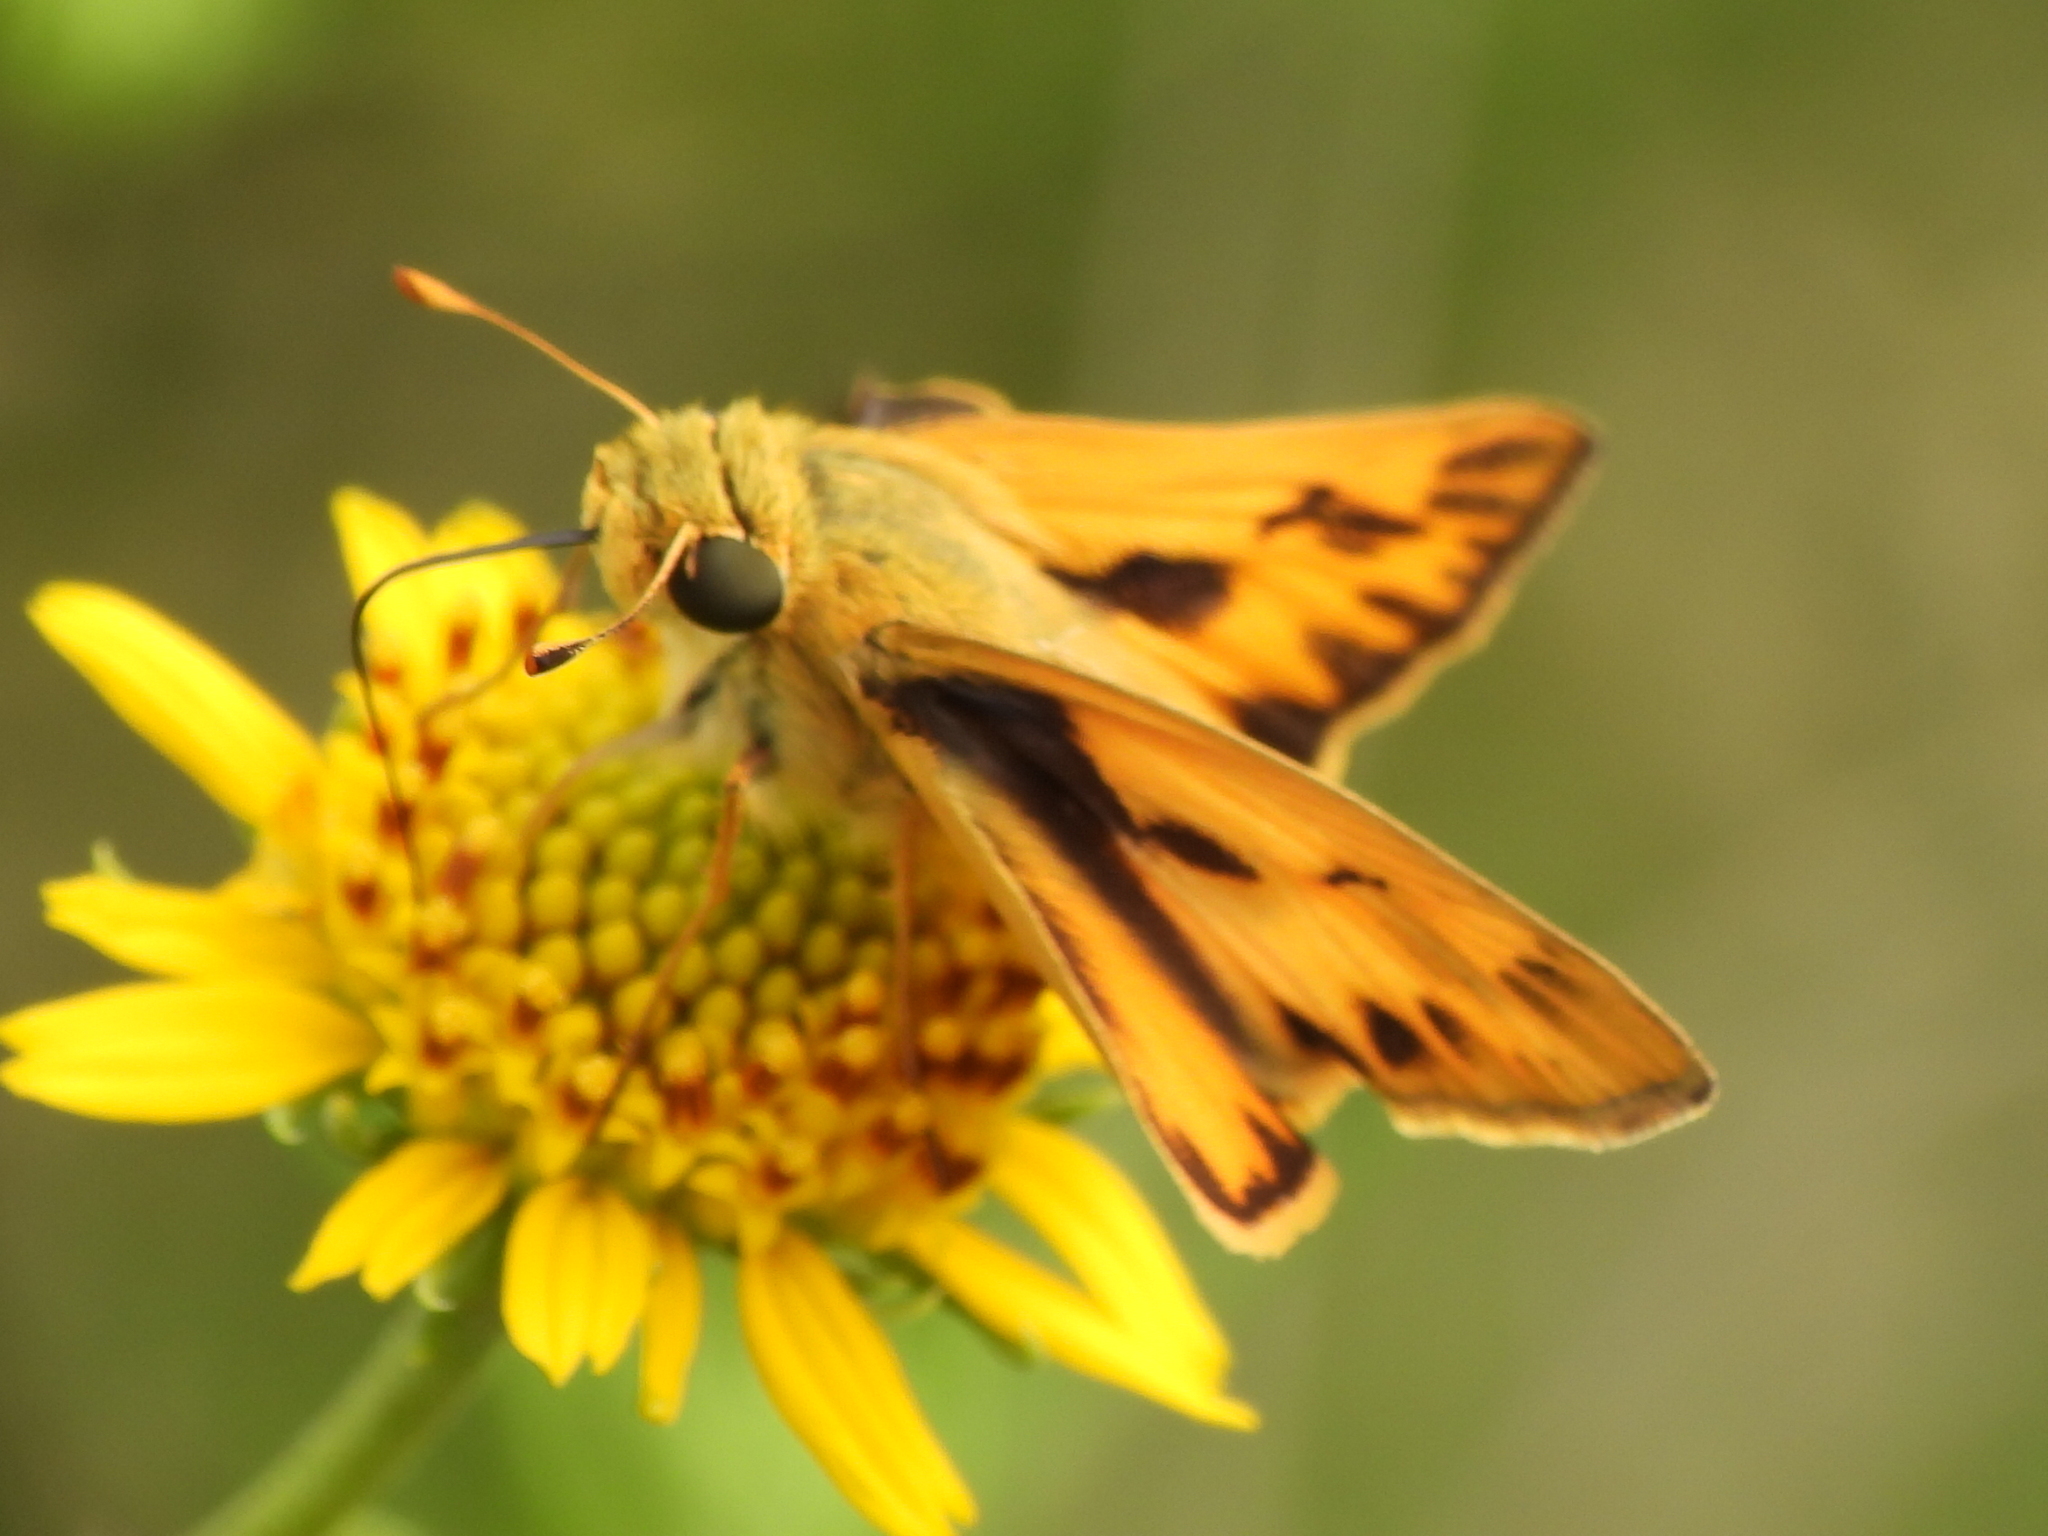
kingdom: Animalia
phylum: Arthropoda
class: Insecta
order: Lepidoptera
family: Hesperiidae
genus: Hylephila
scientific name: Hylephila phyleus
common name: Fiery skipper
